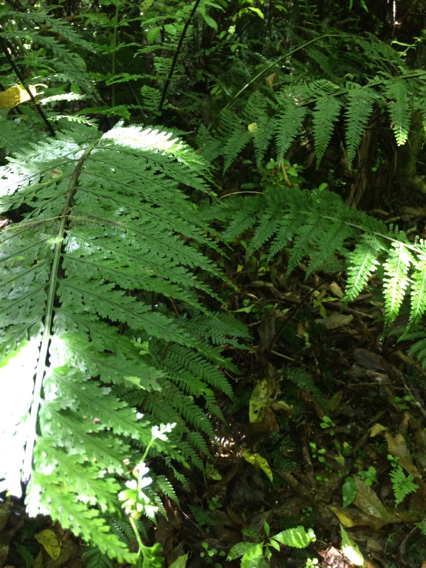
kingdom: Plantae
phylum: Tracheophyta
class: Polypodiopsida
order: Polypodiales
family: Aspleniaceae
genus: Asplenium
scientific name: Asplenium bulbiferum
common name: Mother fern
